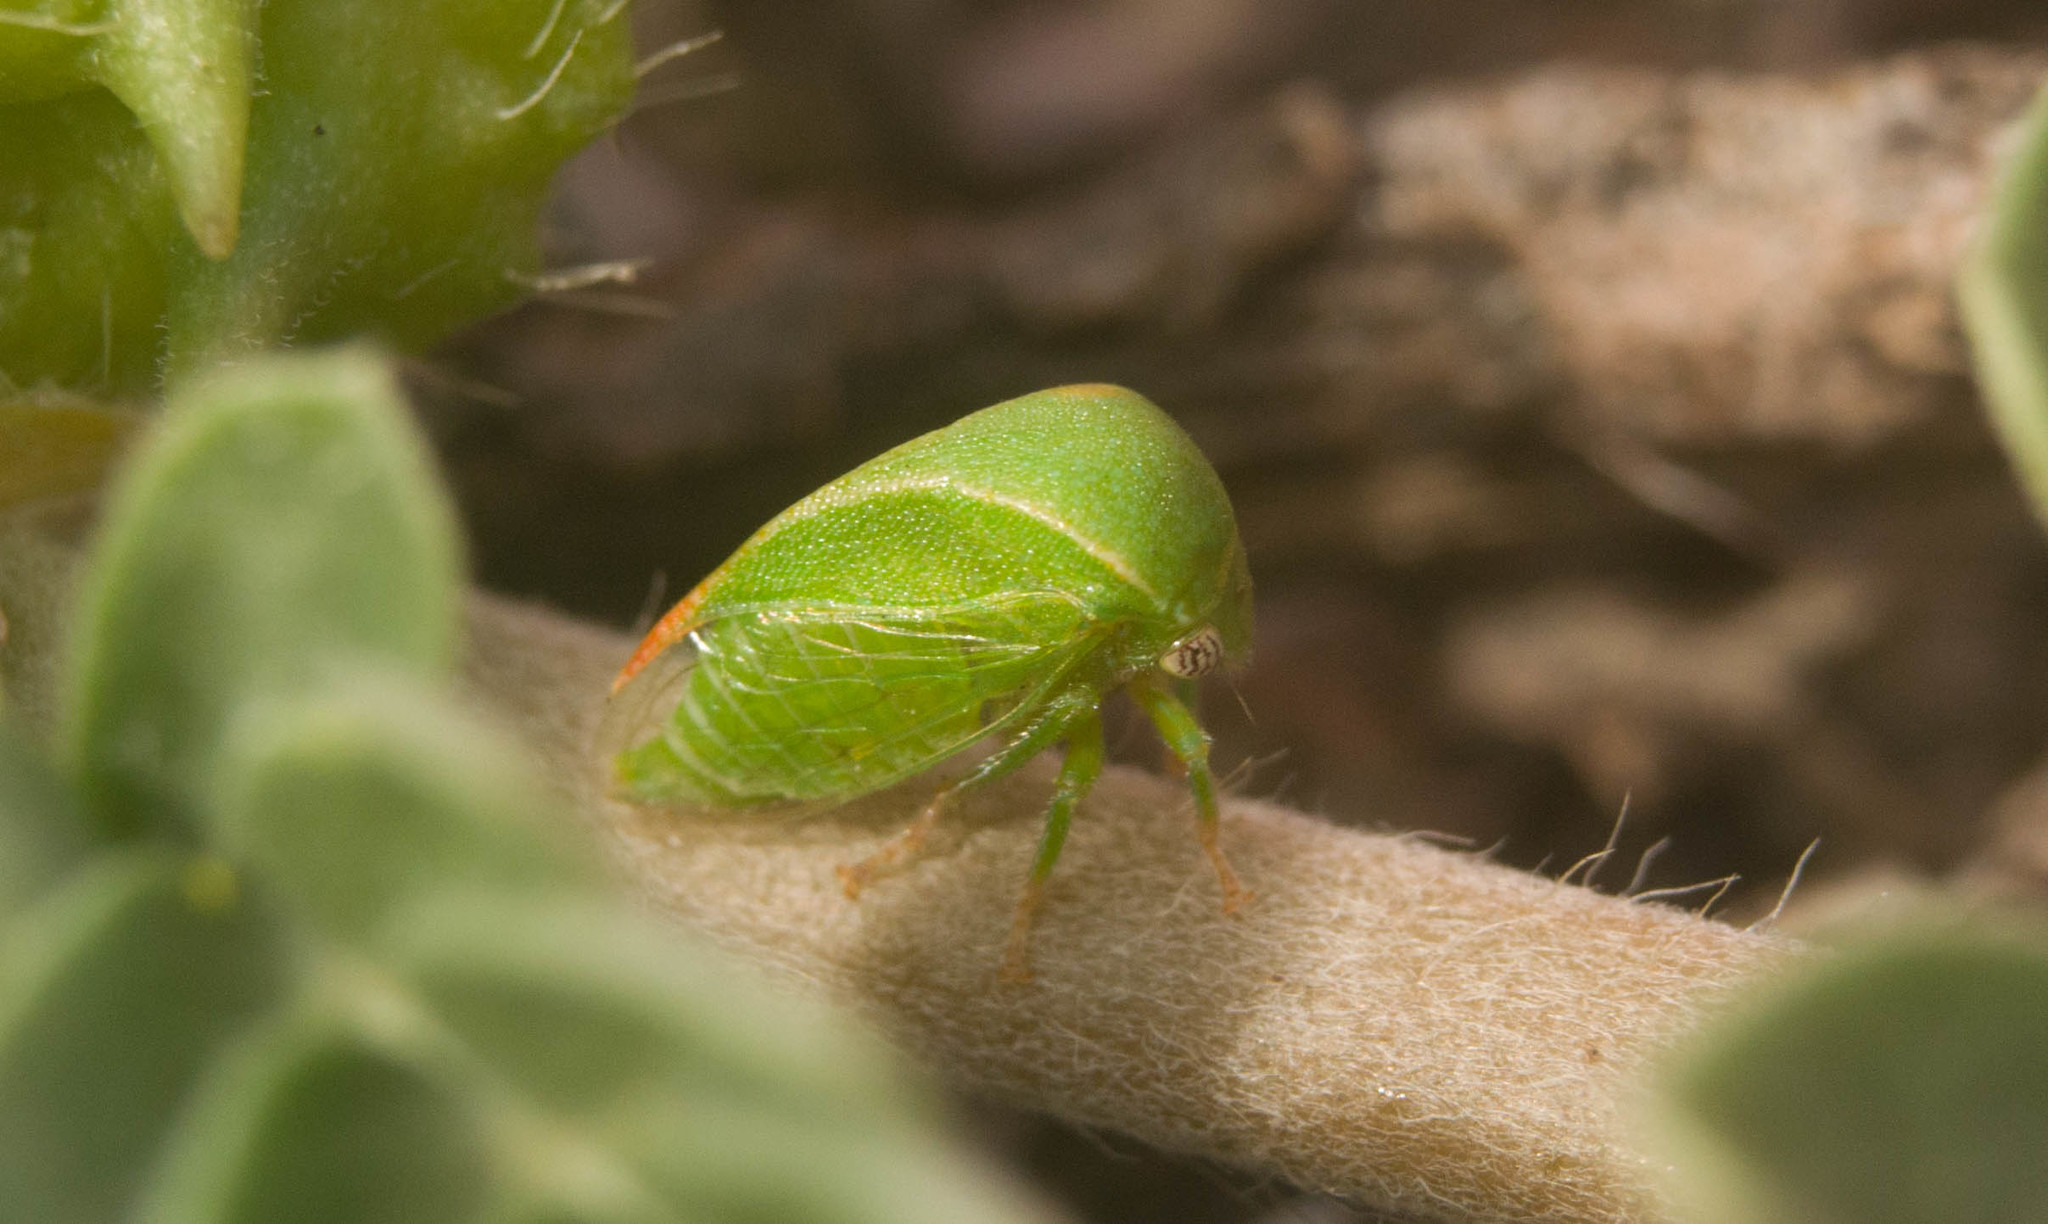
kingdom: Animalia
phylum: Arthropoda
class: Insecta
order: Hemiptera
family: Membracidae
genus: Spissistilus
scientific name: Spissistilus festina
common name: Membracid bug
